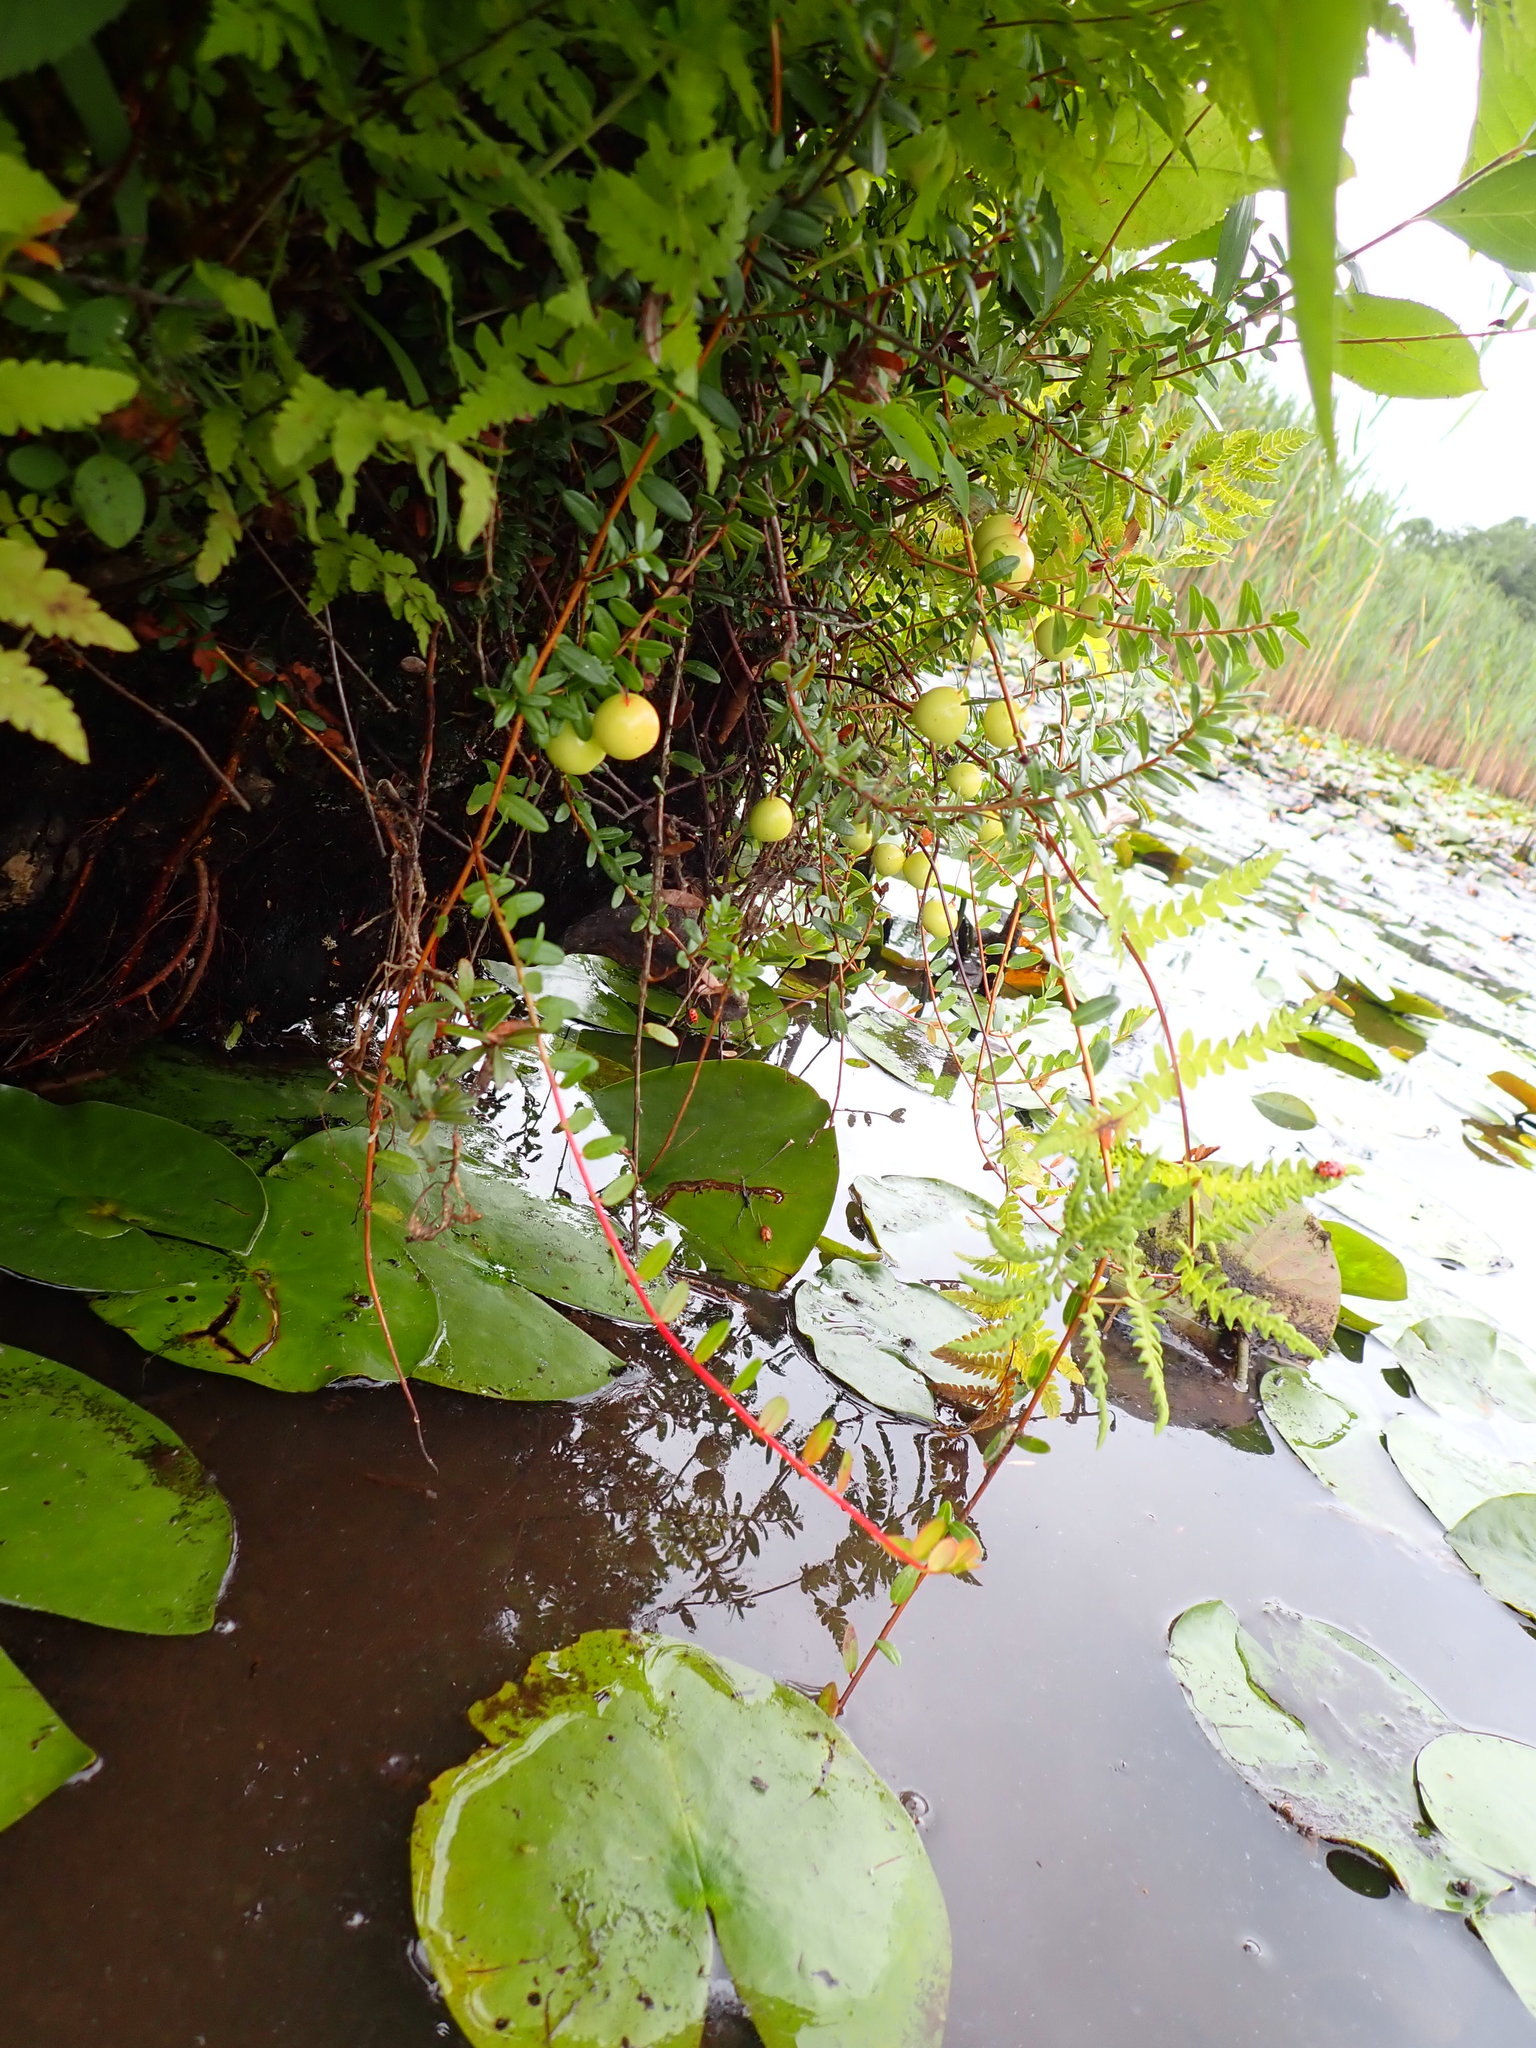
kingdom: Plantae
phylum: Tracheophyta
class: Magnoliopsida
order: Ericales
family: Ericaceae
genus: Vaccinium
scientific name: Vaccinium macrocarpon
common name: American cranberry
